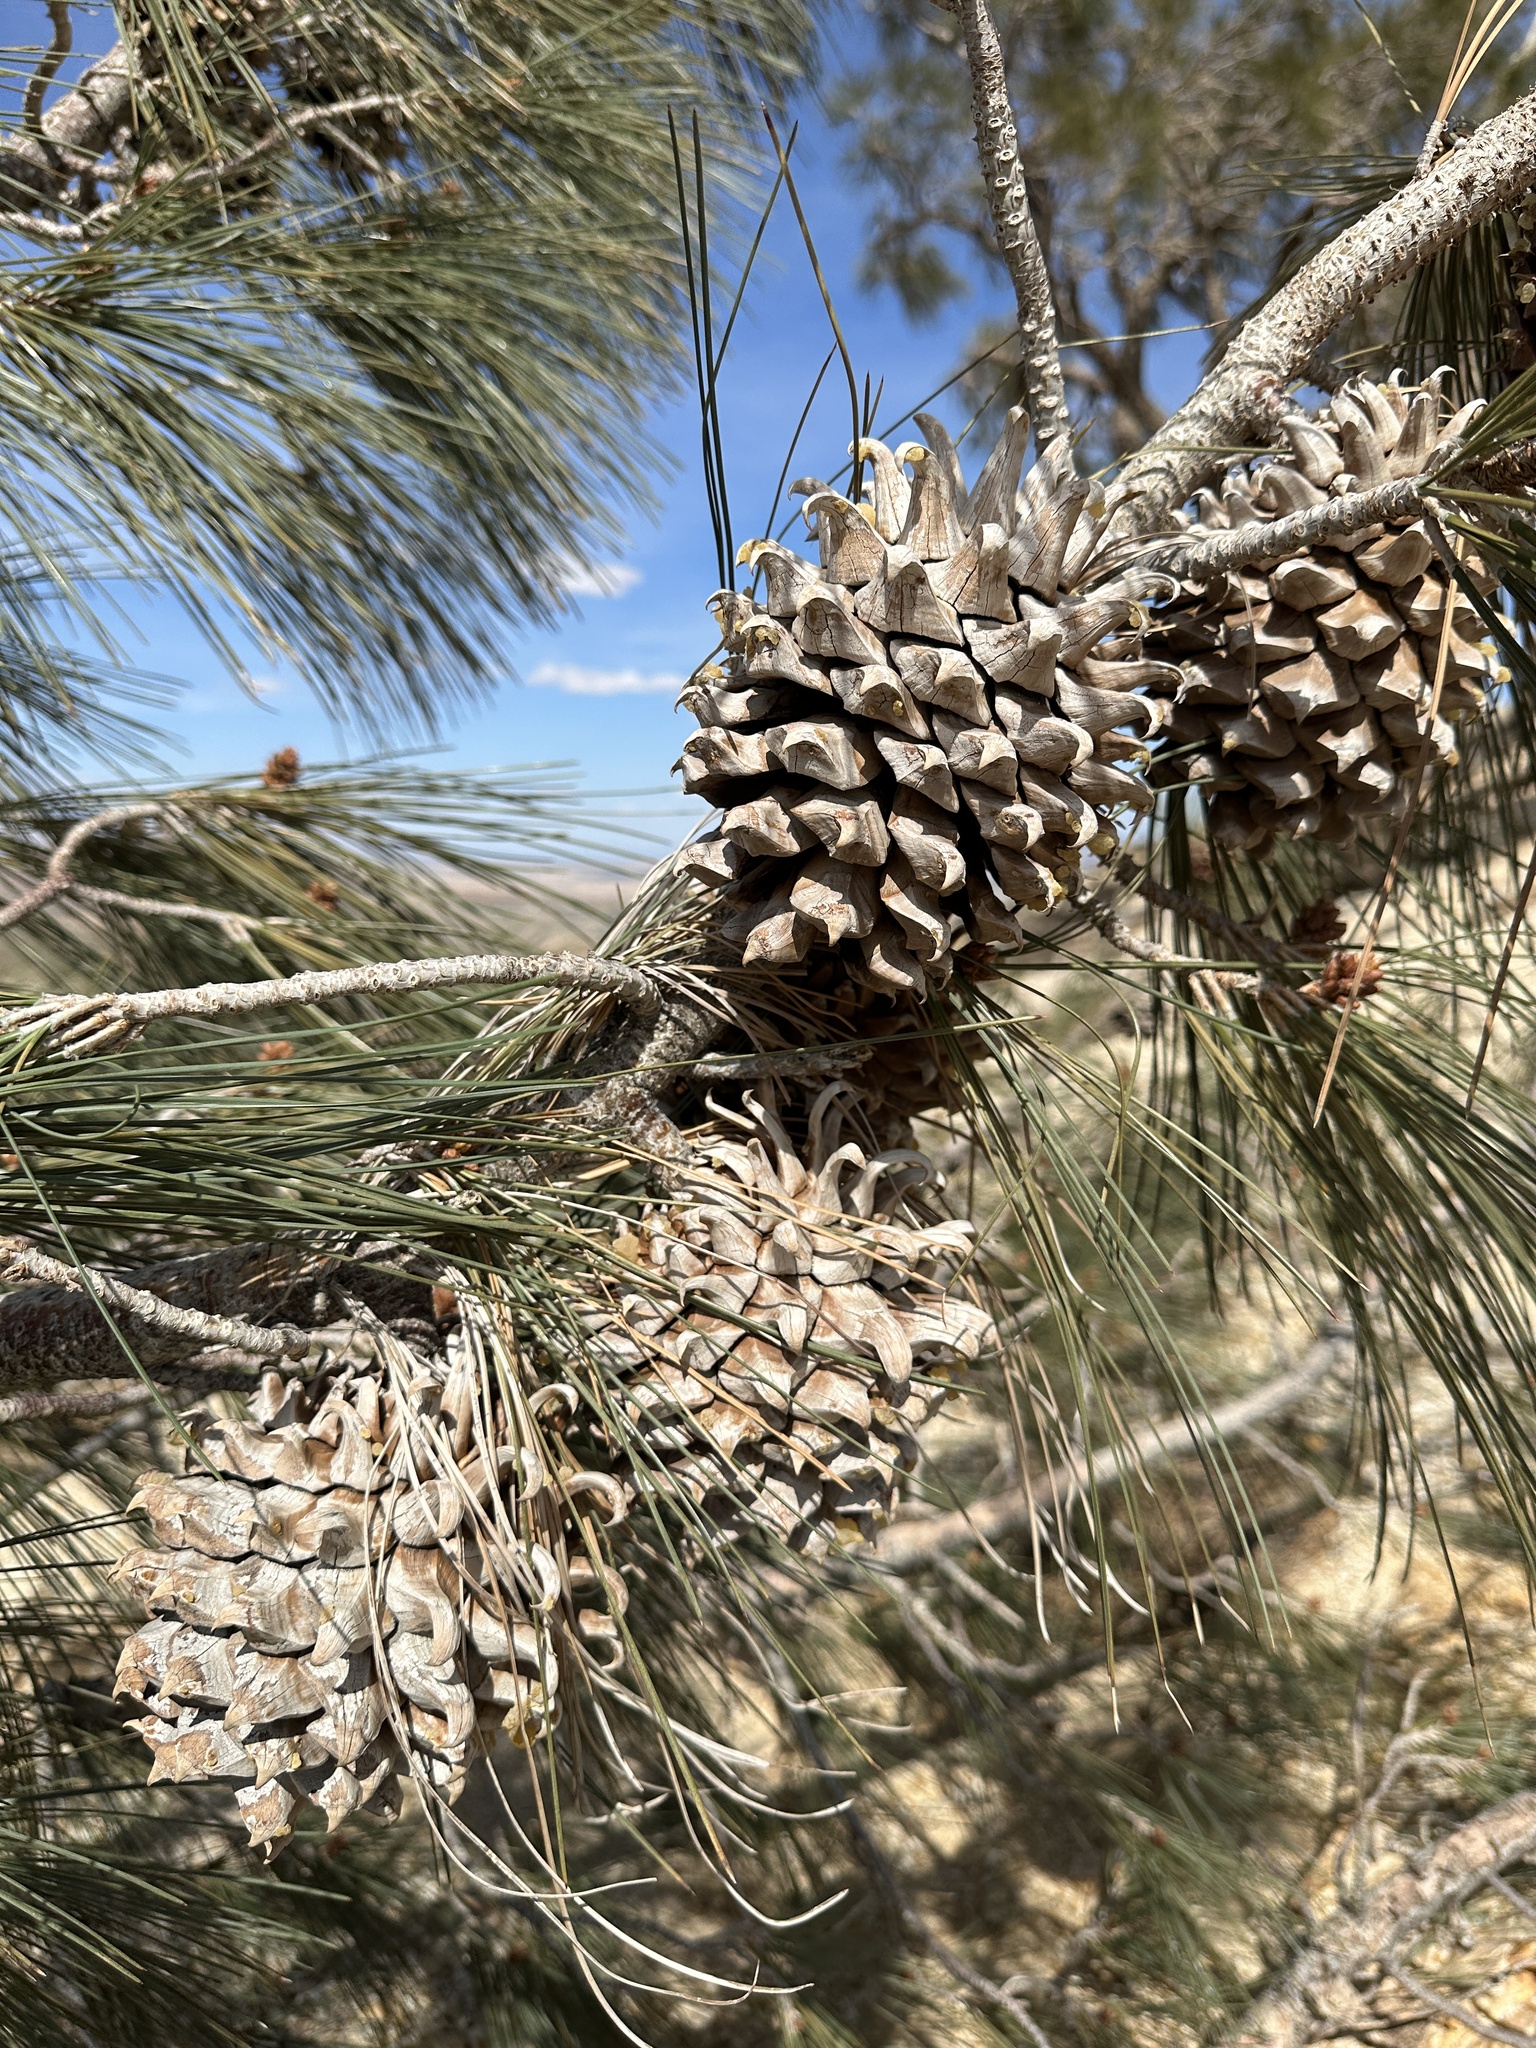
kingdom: Plantae
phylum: Tracheophyta
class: Pinopsida
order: Pinales
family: Pinaceae
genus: Pinus
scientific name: Pinus sabiniana
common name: Bull pine
